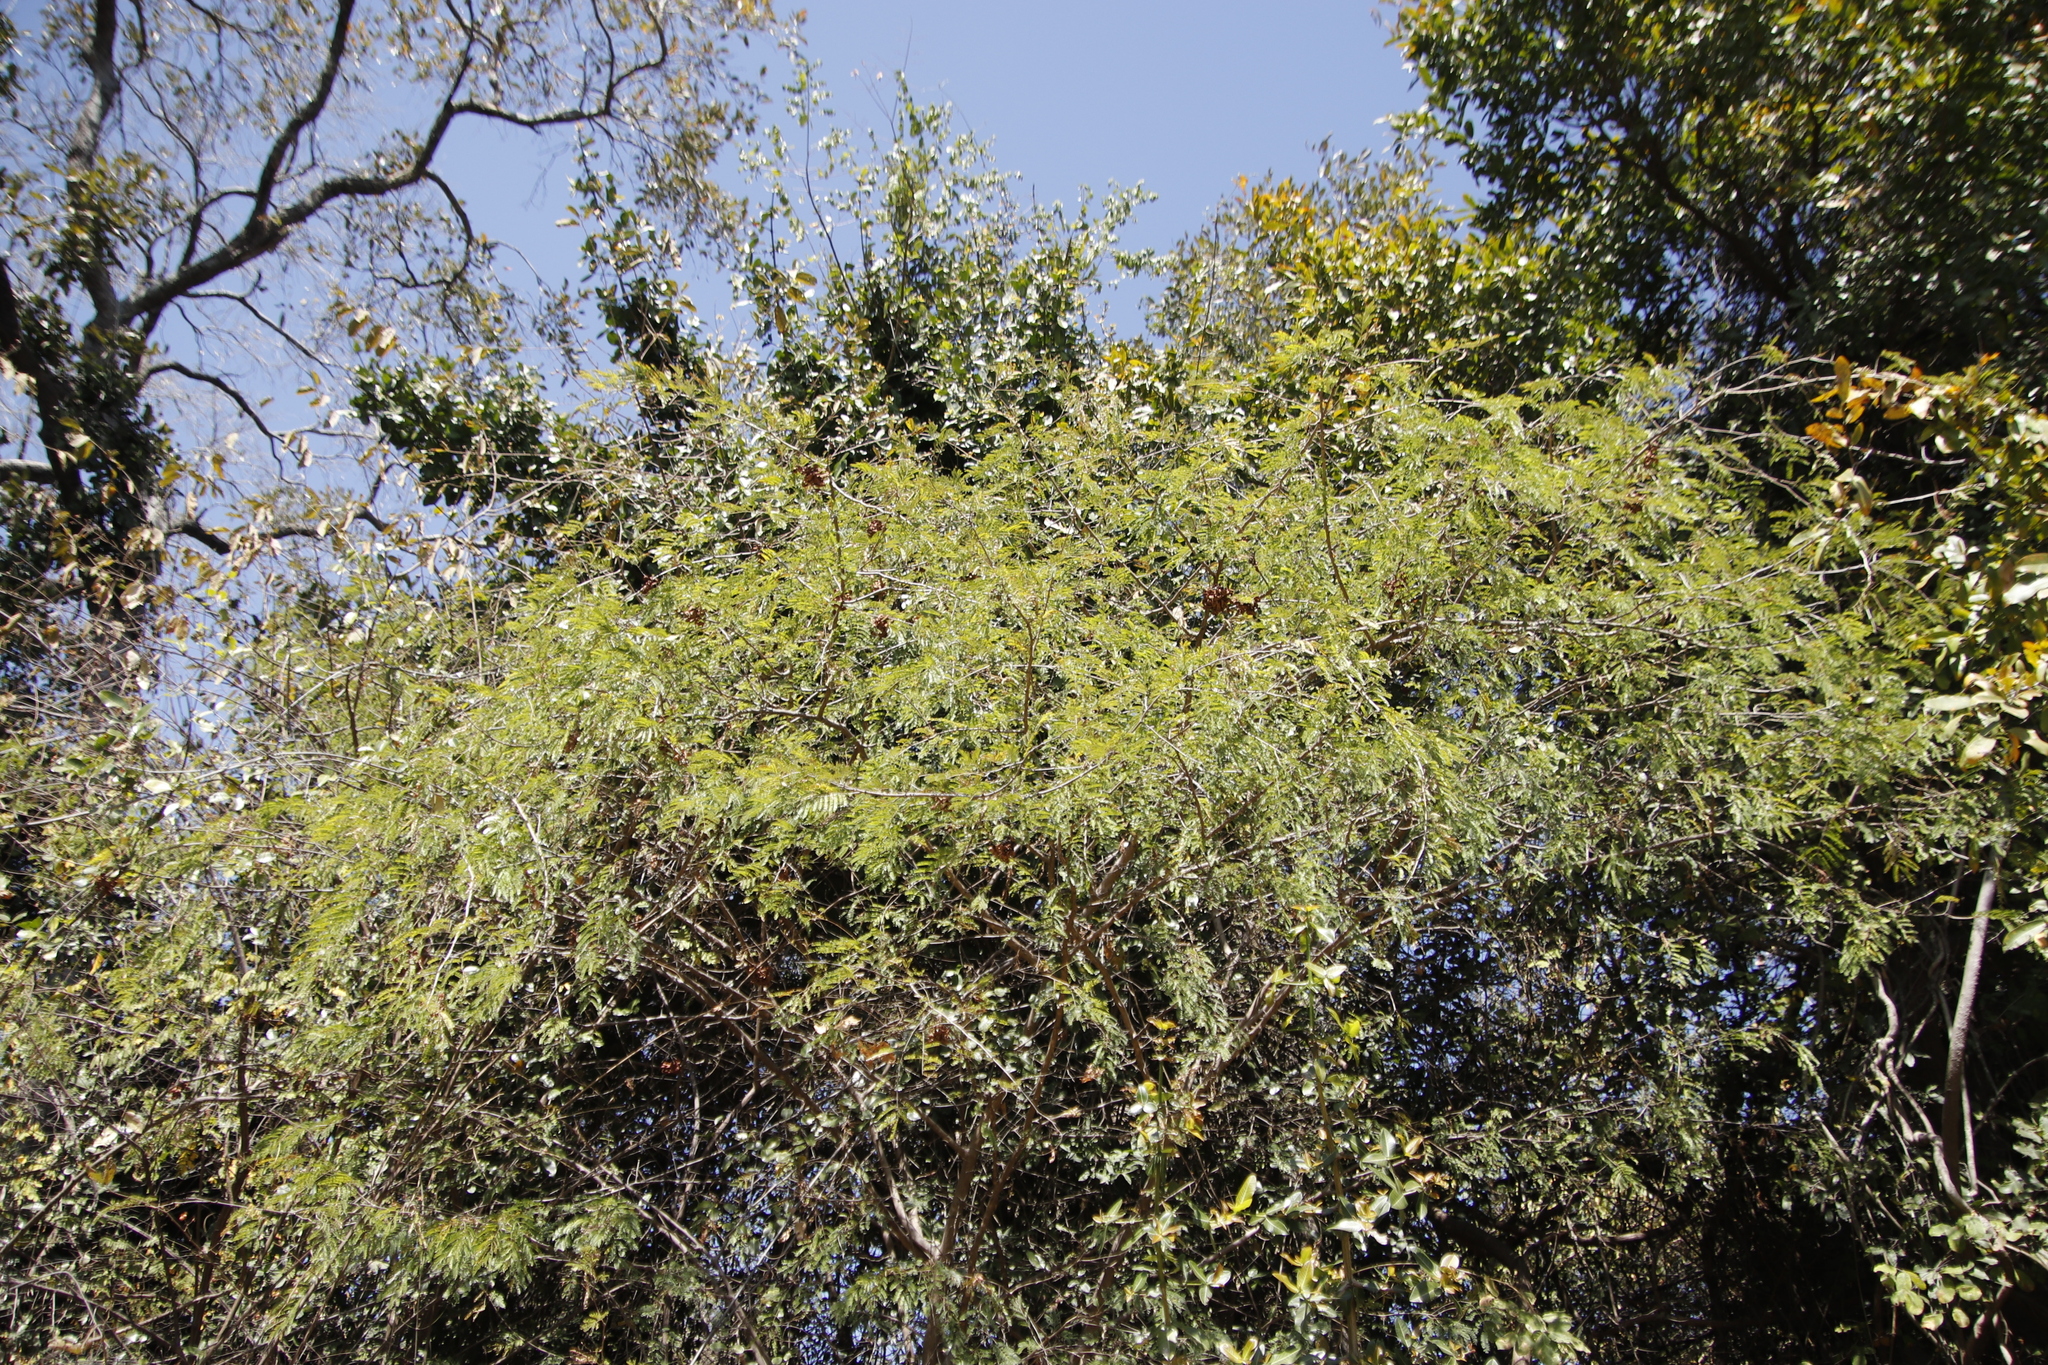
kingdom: Plantae
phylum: Tracheophyta
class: Magnoliopsida
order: Fabales
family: Fabaceae
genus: Dichrostachys
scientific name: Dichrostachys cinerea
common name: Sicklebush
